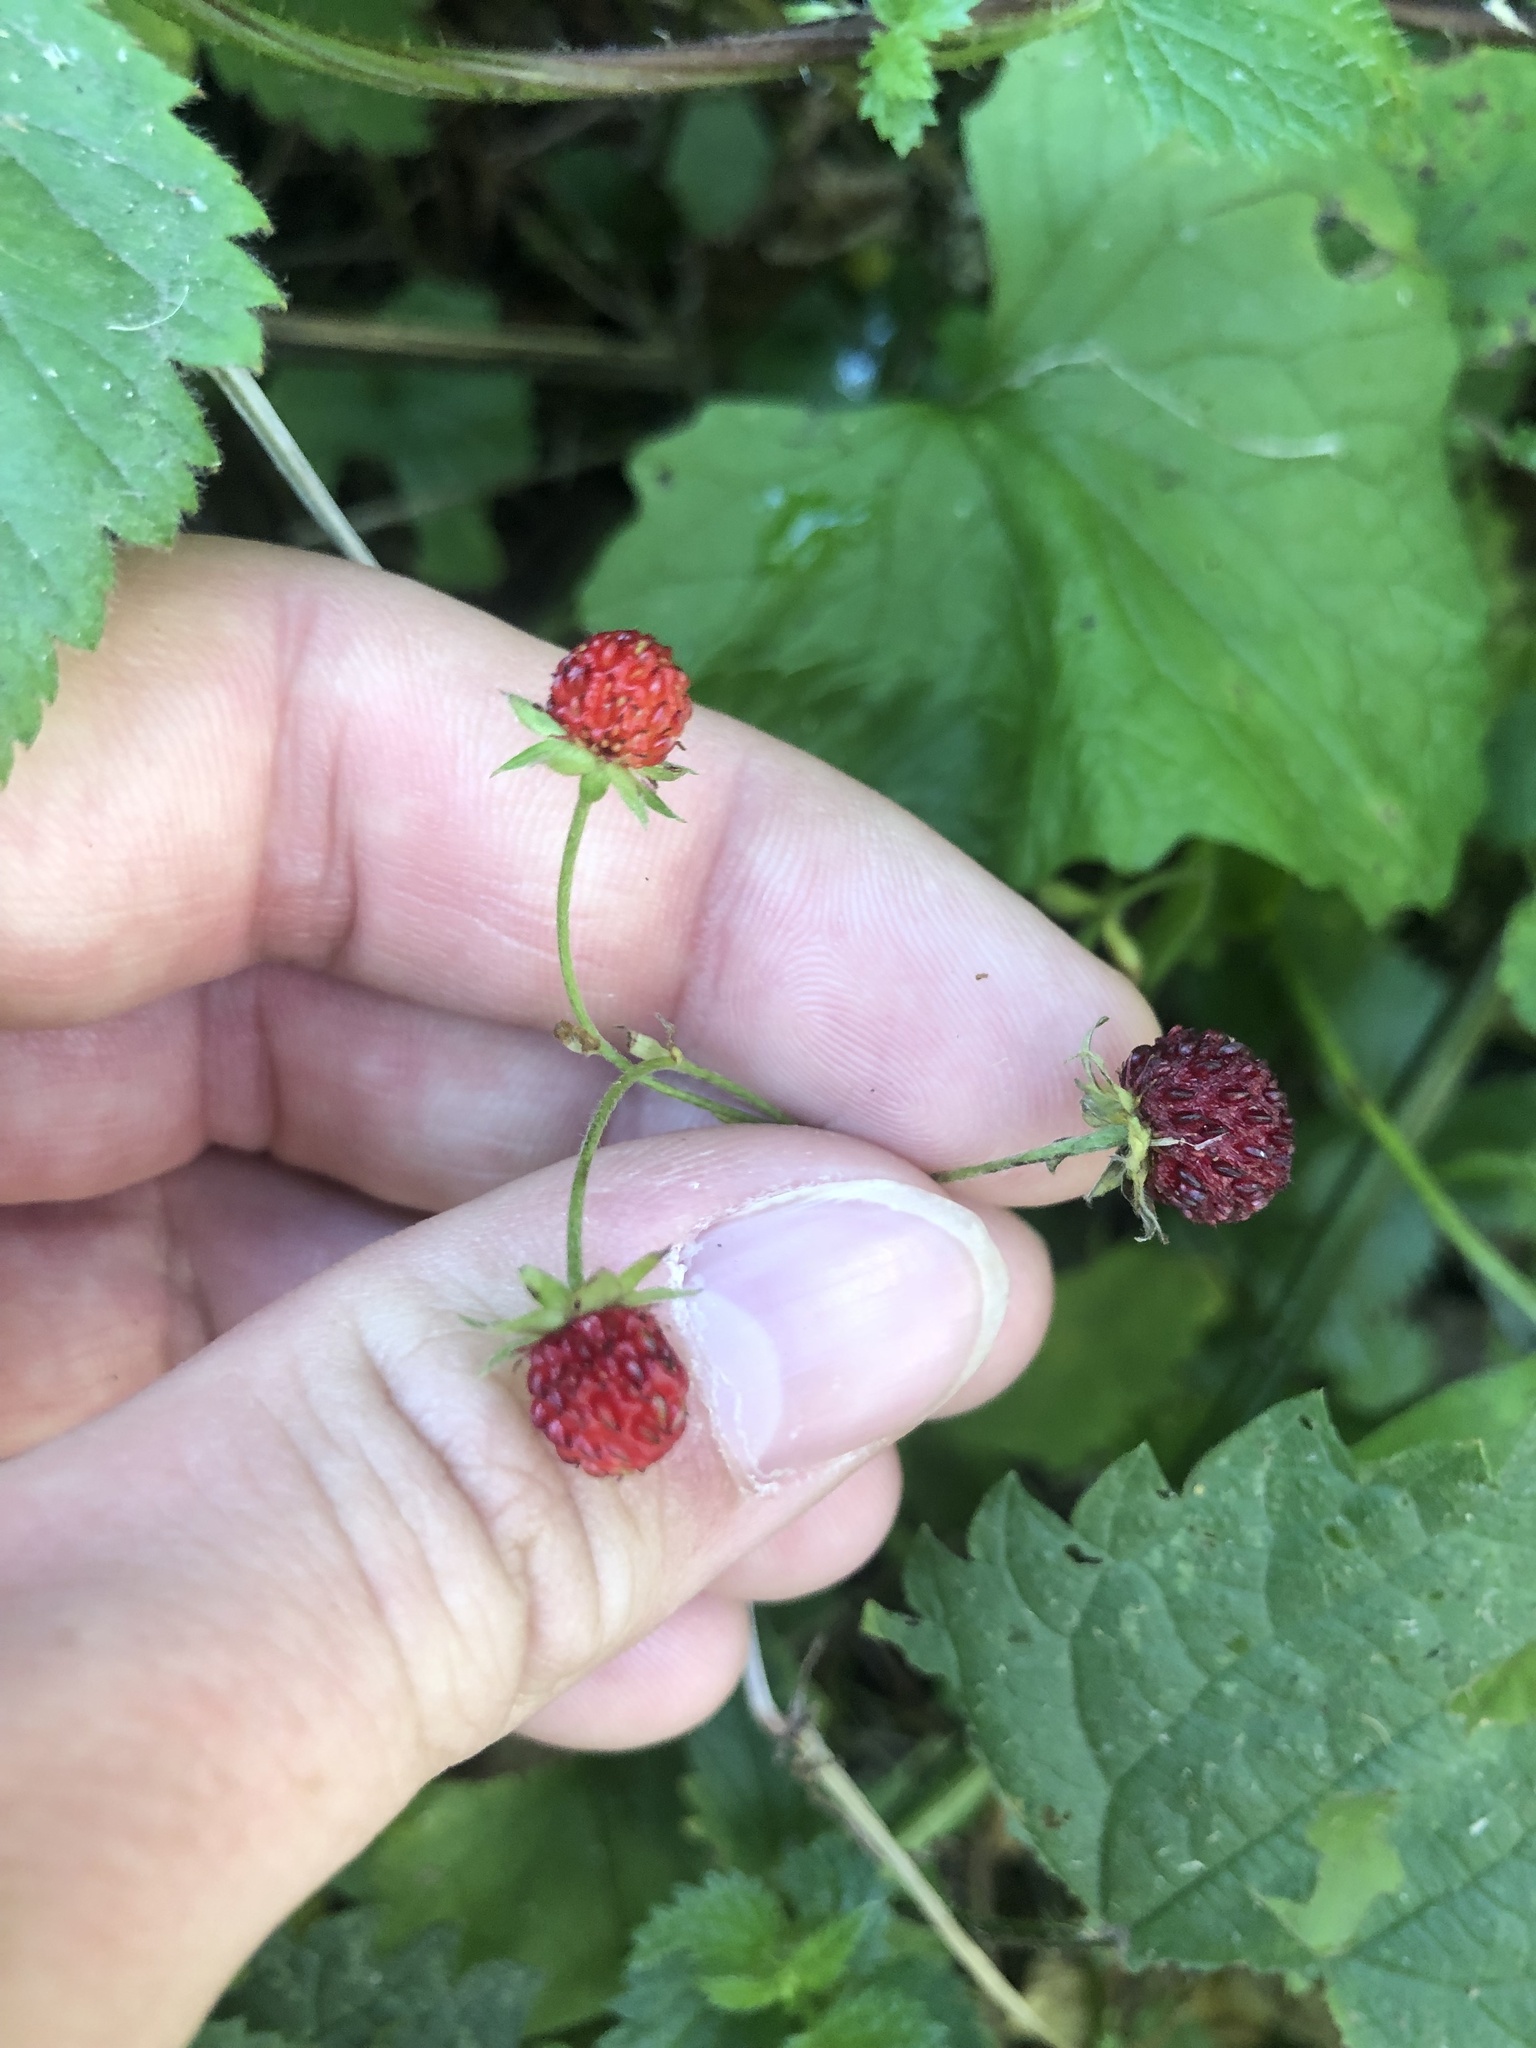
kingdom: Plantae
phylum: Tracheophyta
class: Magnoliopsida
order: Rosales
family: Rosaceae
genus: Fragaria
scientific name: Fragaria vesca
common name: Wild strawberry
